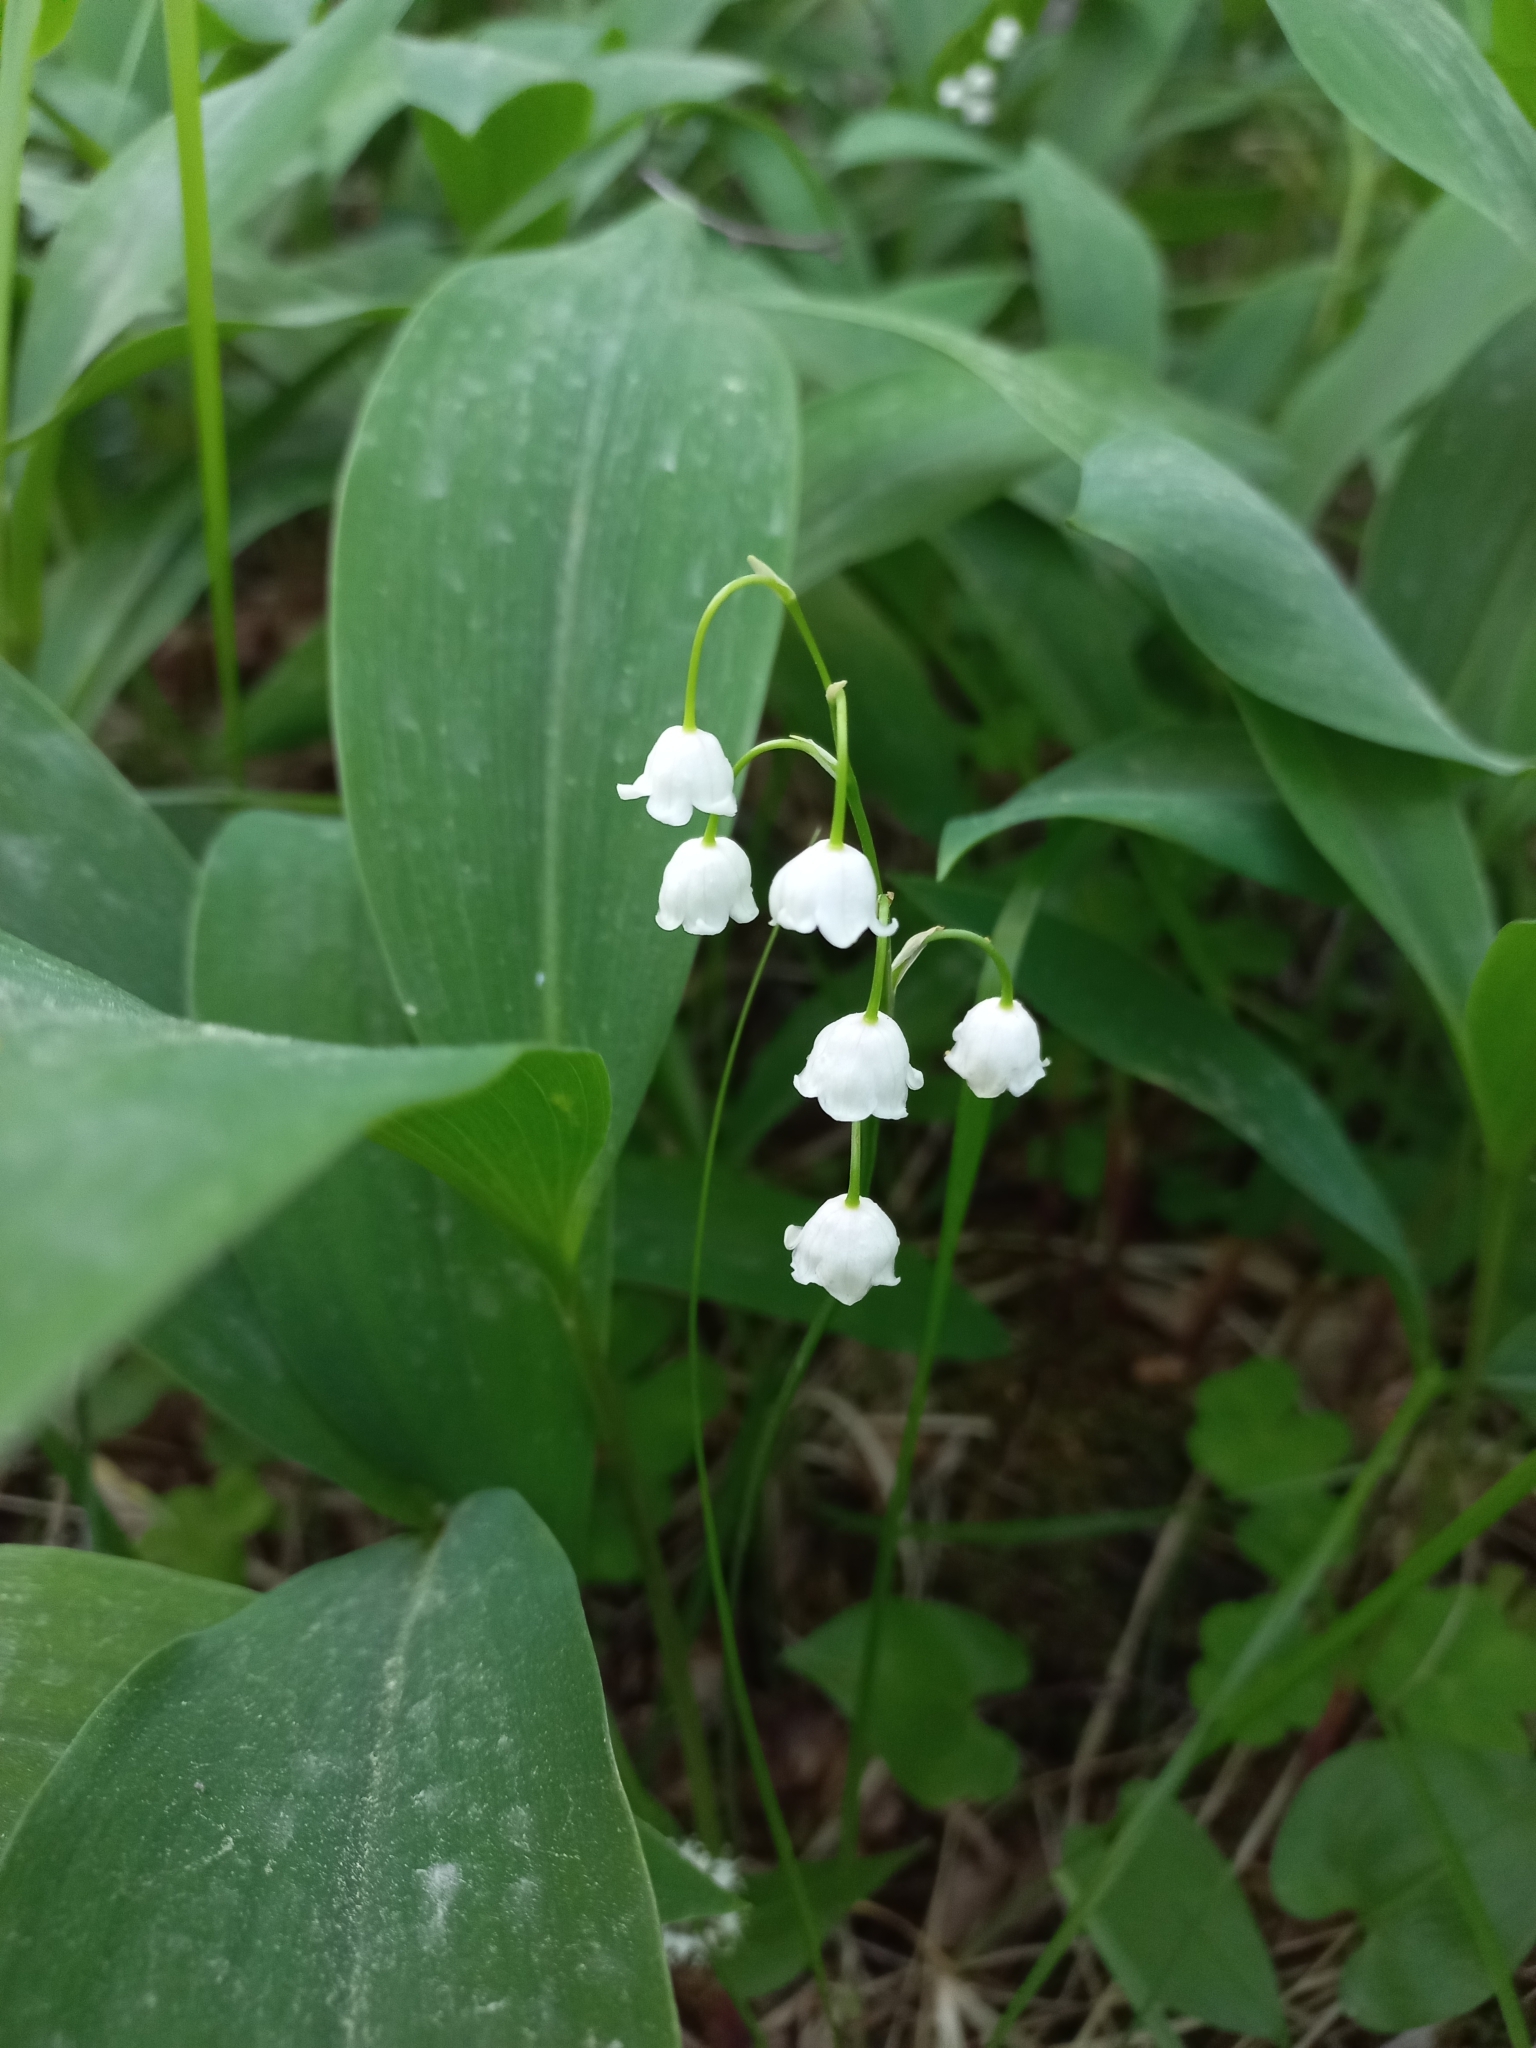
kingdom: Plantae
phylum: Tracheophyta
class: Liliopsida
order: Asparagales
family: Asparagaceae
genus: Convallaria
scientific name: Convallaria majalis
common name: Lily-of-the-valley
